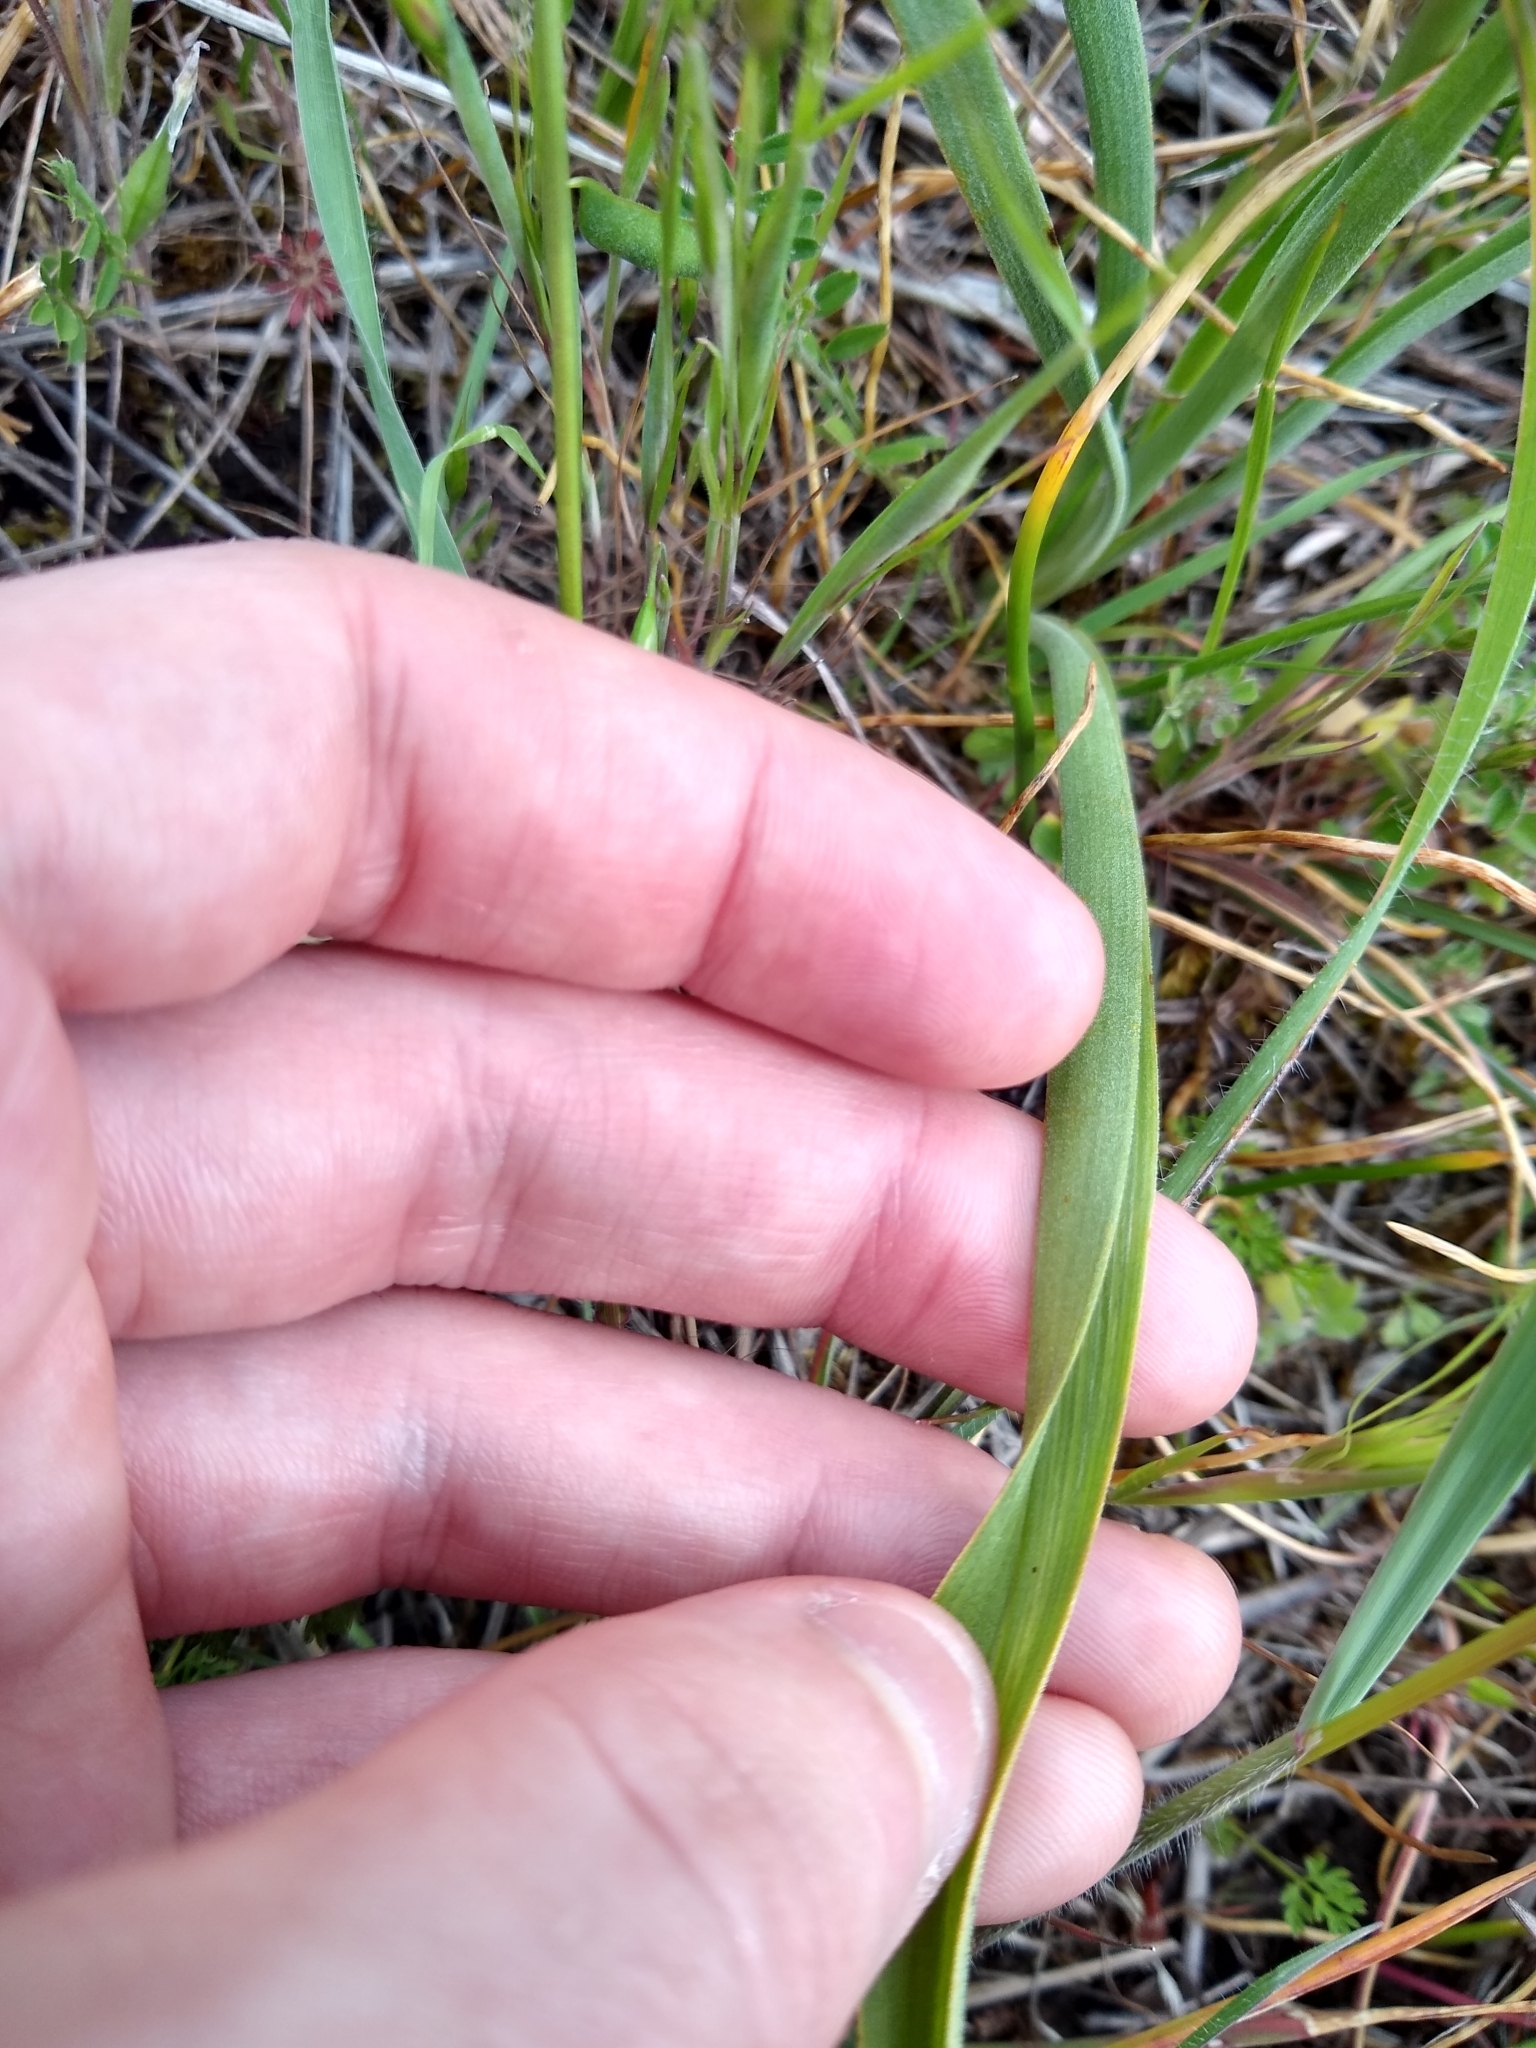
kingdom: Plantae
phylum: Tracheophyta
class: Liliopsida
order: Liliales
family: Melanthiaceae
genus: Toxicoscordion
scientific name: Toxicoscordion venenosum
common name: Meadow death camas
